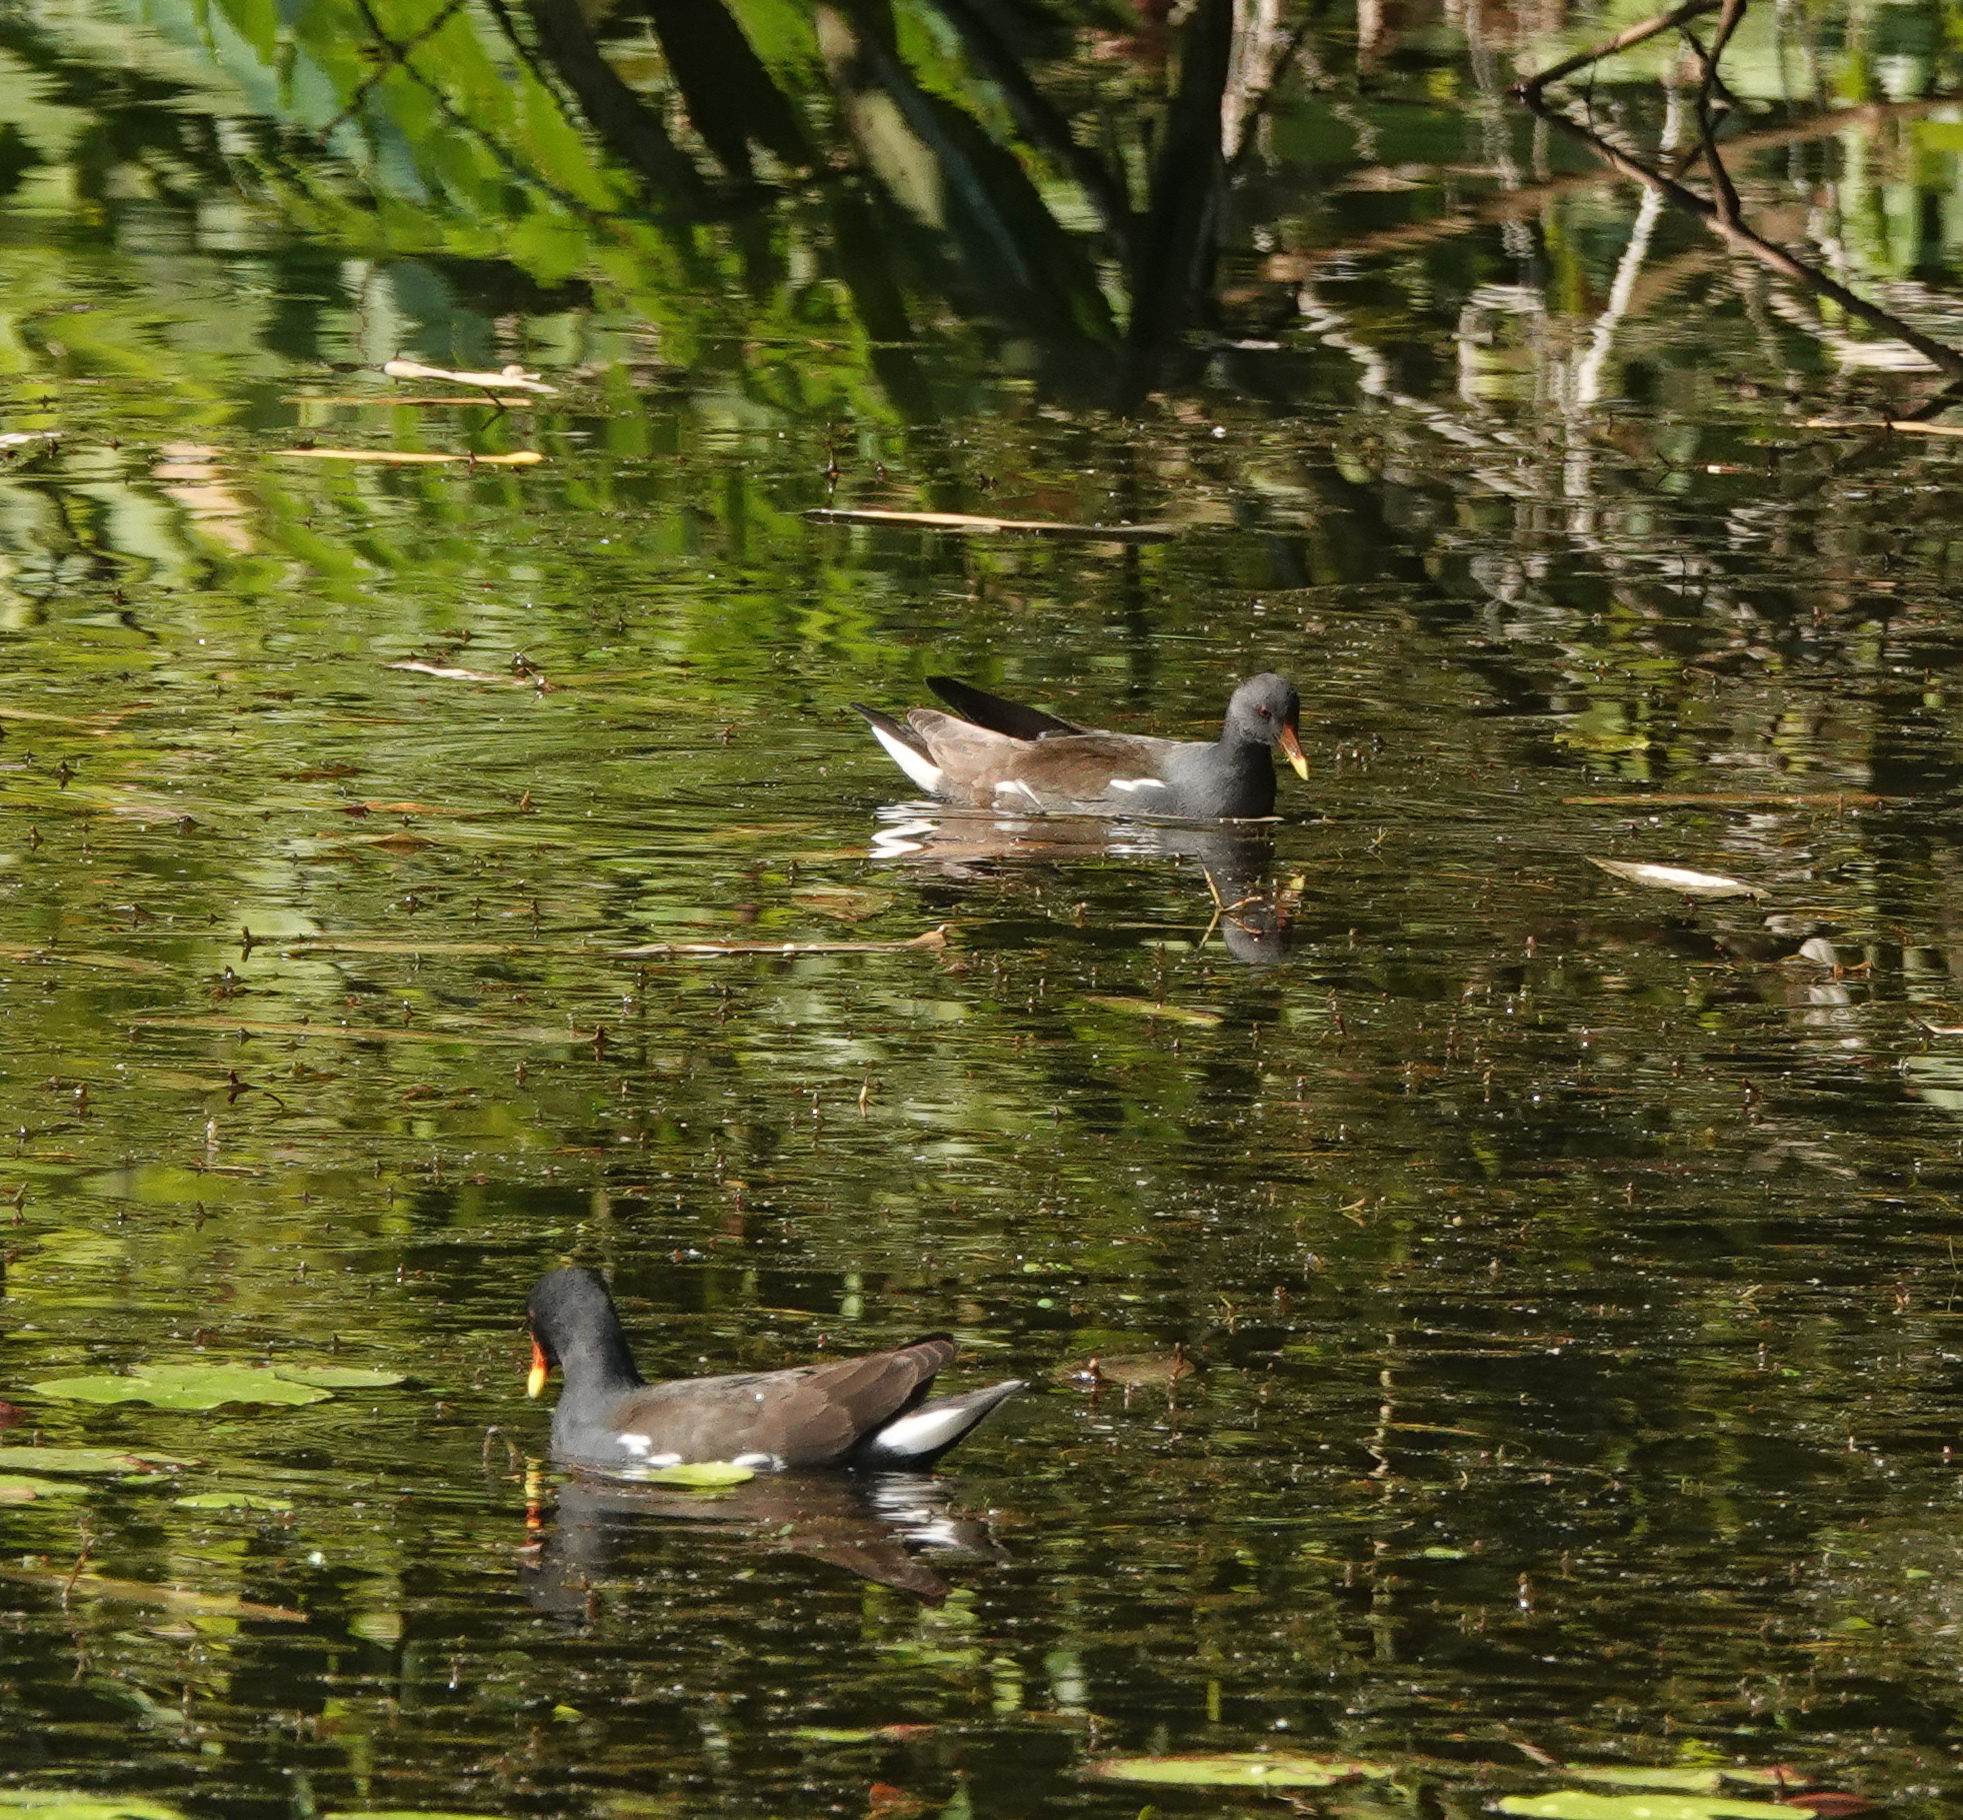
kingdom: Animalia
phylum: Chordata
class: Aves
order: Gruiformes
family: Rallidae
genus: Gallinula
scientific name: Gallinula chloropus
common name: Common moorhen
